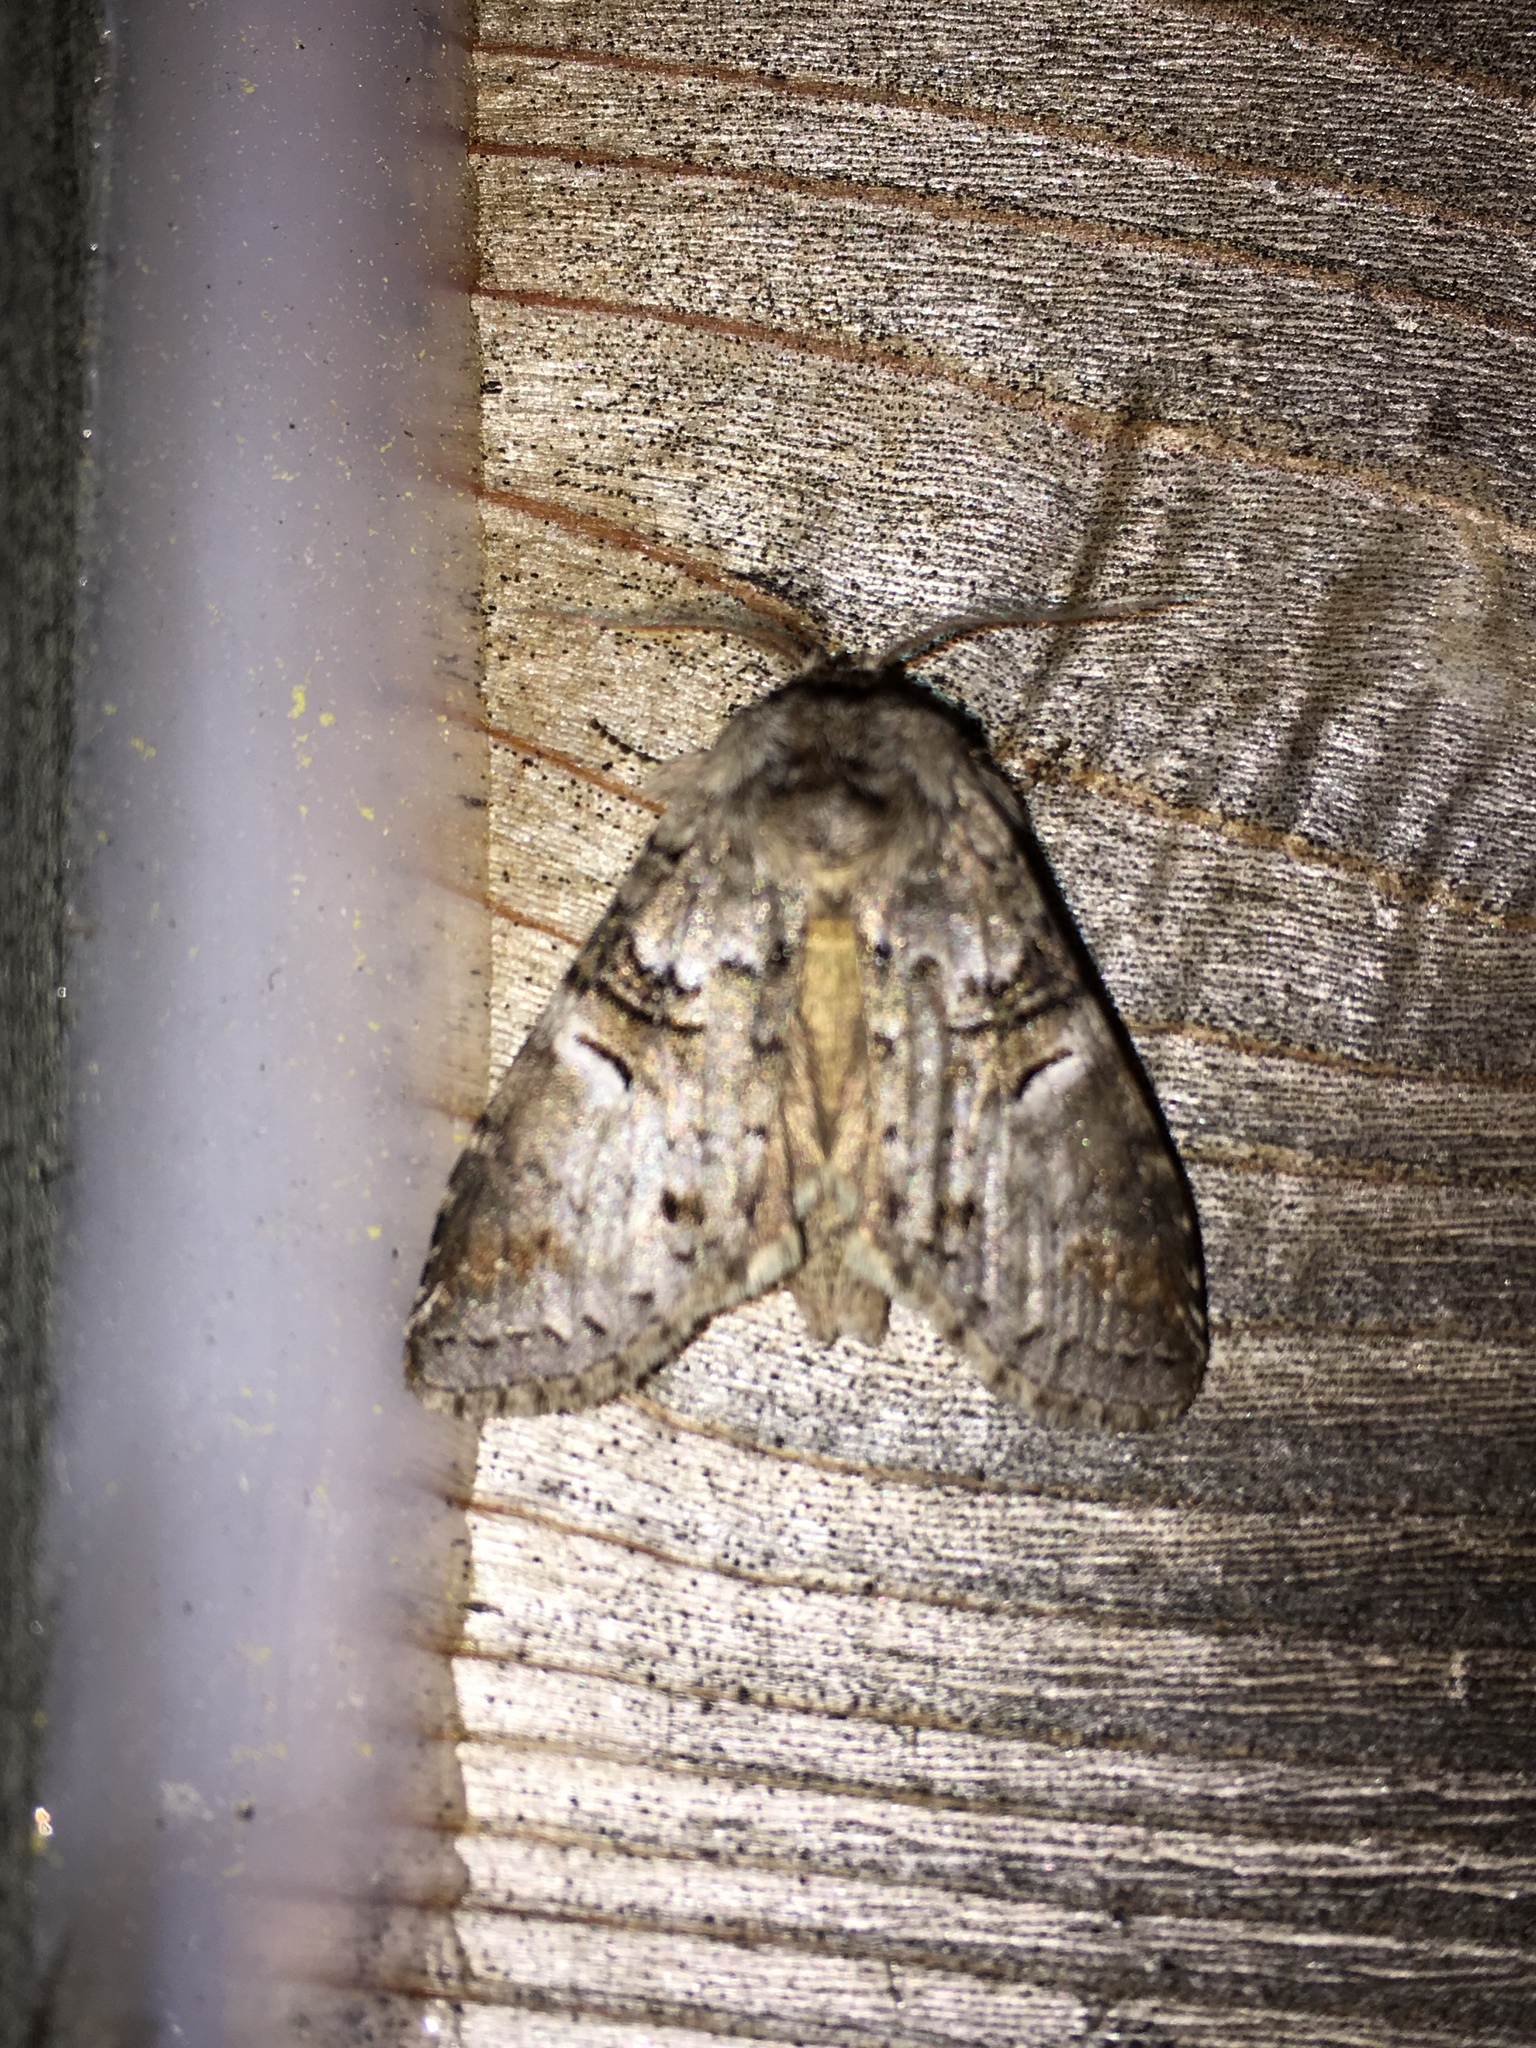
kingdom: Animalia
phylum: Arthropoda
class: Insecta
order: Lepidoptera
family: Notodontidae
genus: Ellida
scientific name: Ellida caniplaga
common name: Linden prominent
